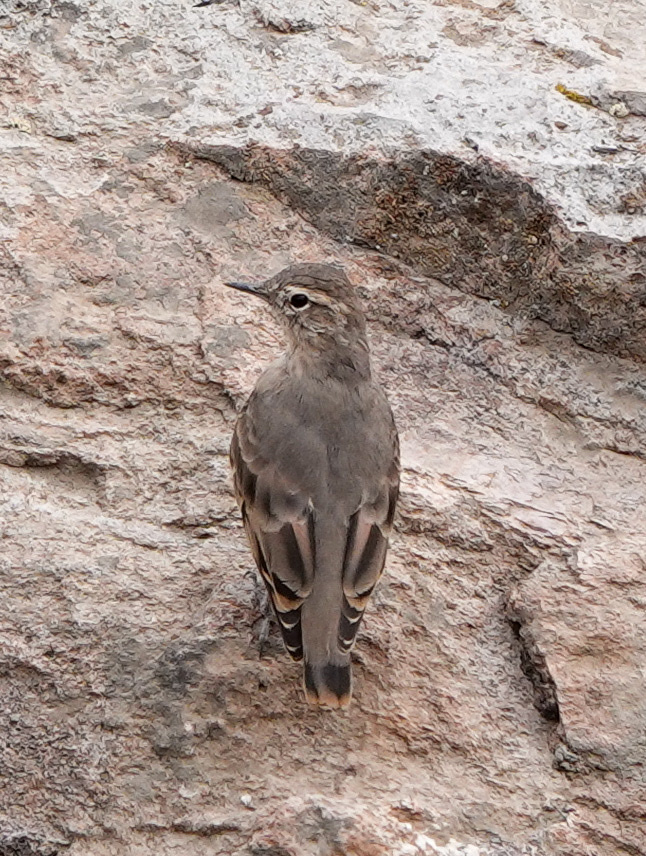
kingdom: Animalia
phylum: Chordata
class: Aves
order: Passeriformes
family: Furnariidae
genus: Geositta
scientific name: Geositta rufipennis
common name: Rufous-banded miner
